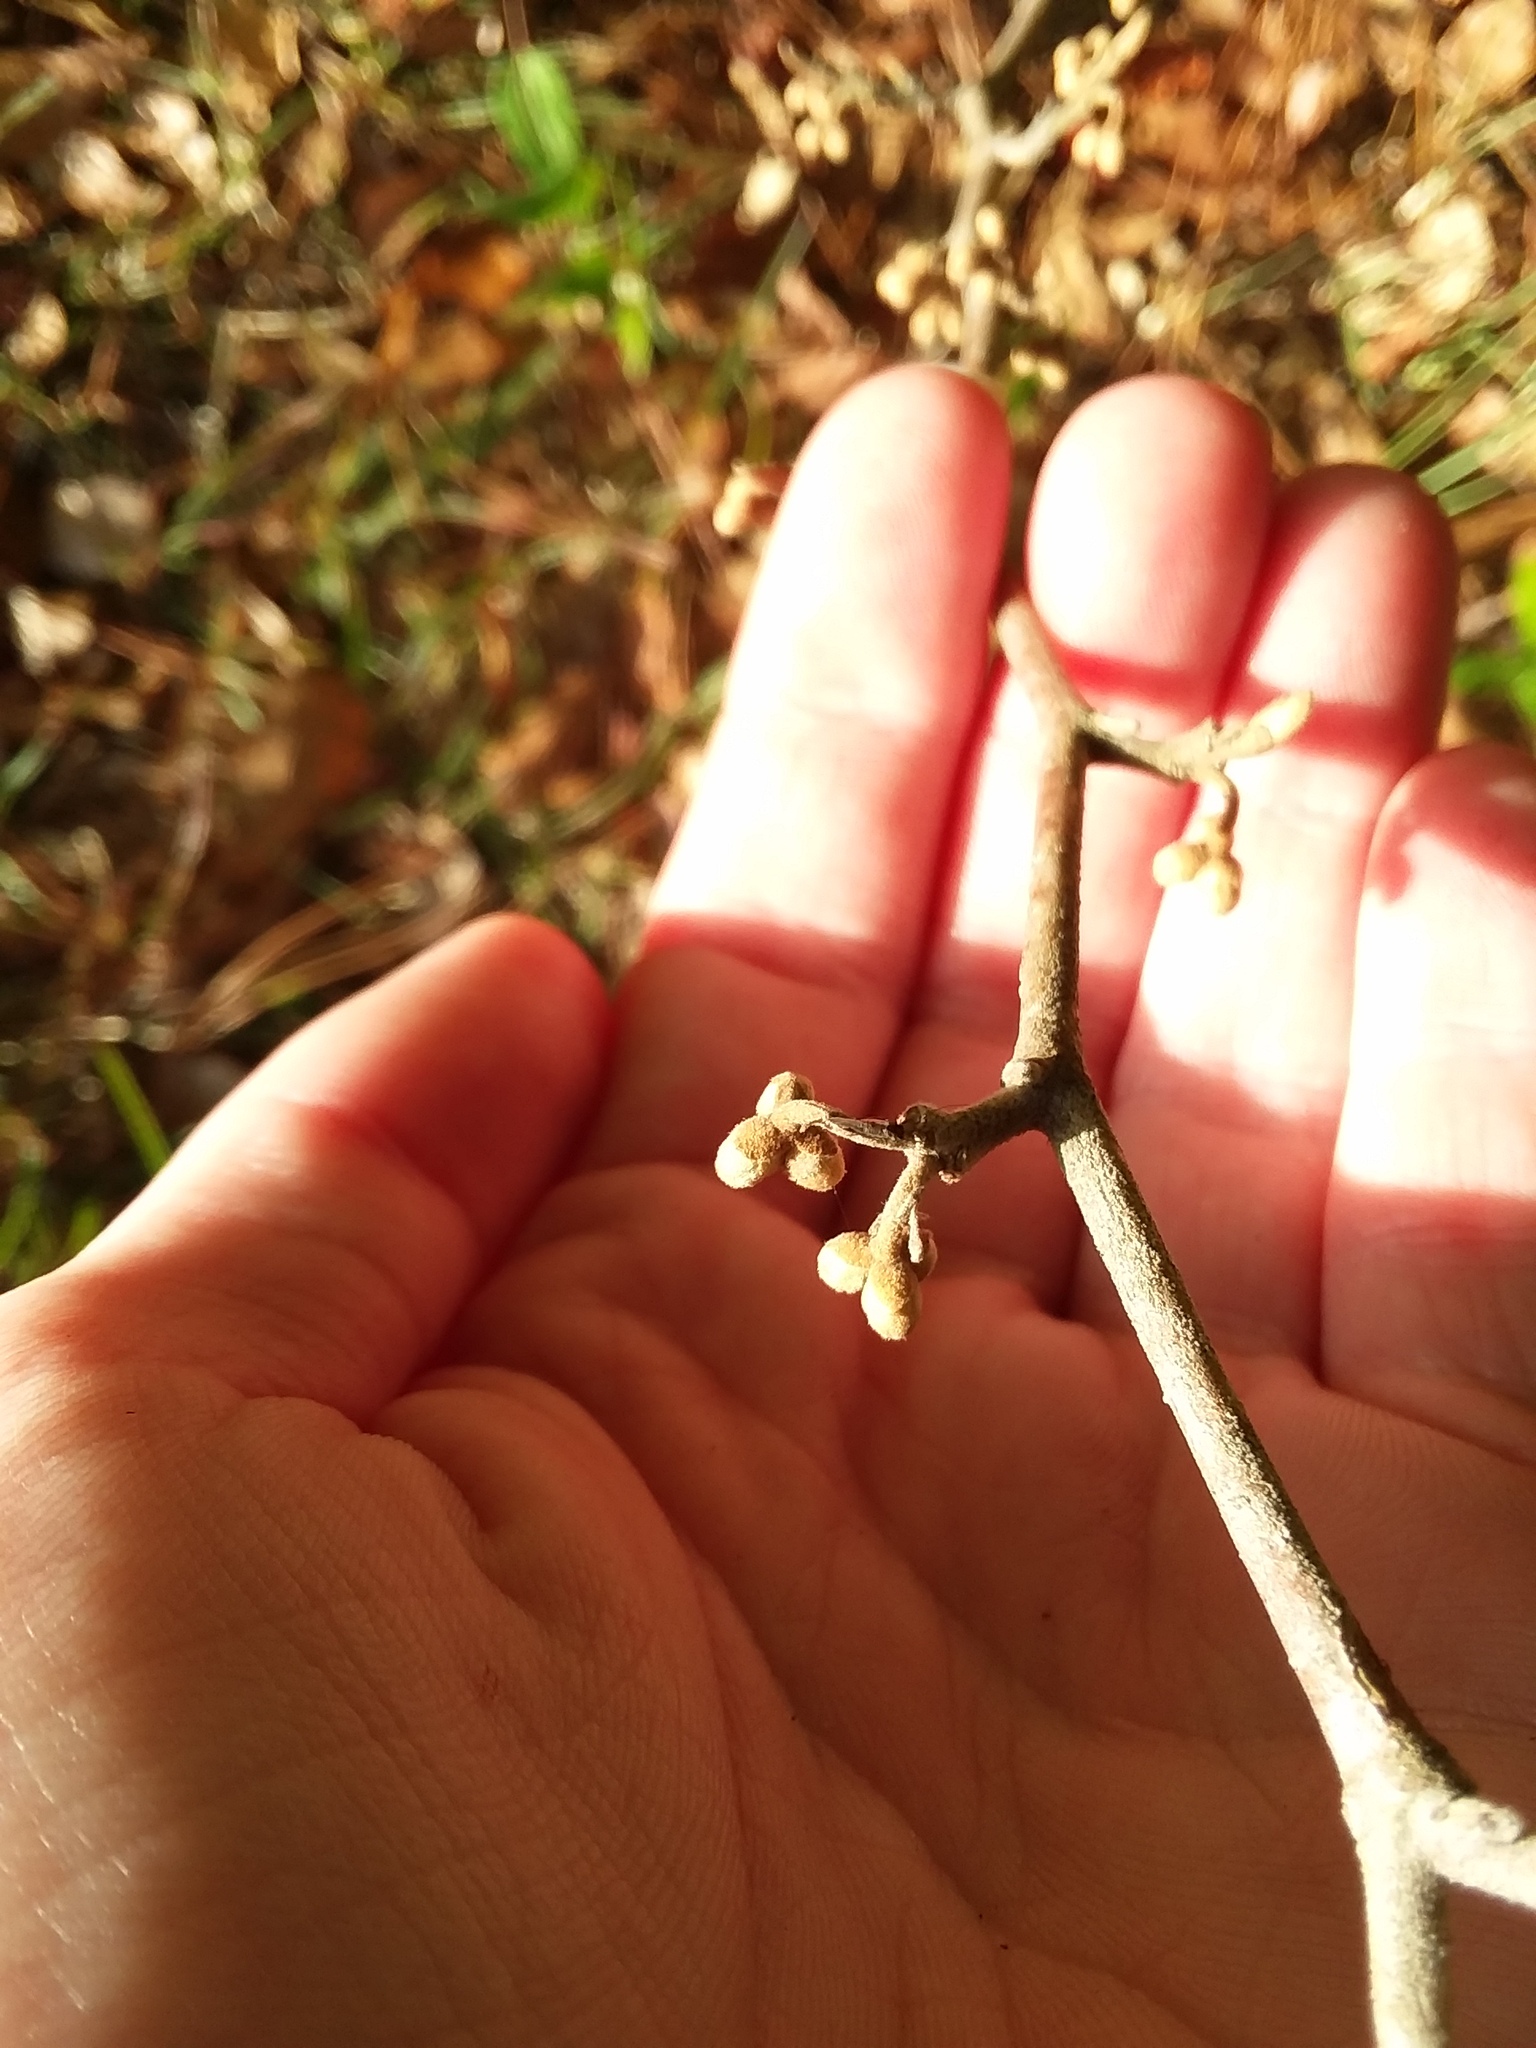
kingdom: Plantae
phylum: Tracheophyta
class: Magnoliopsida
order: Saxifragales
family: Hamamelidaceae
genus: Hamamelis
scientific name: Hamamelis virginiana
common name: Witch-hazel
